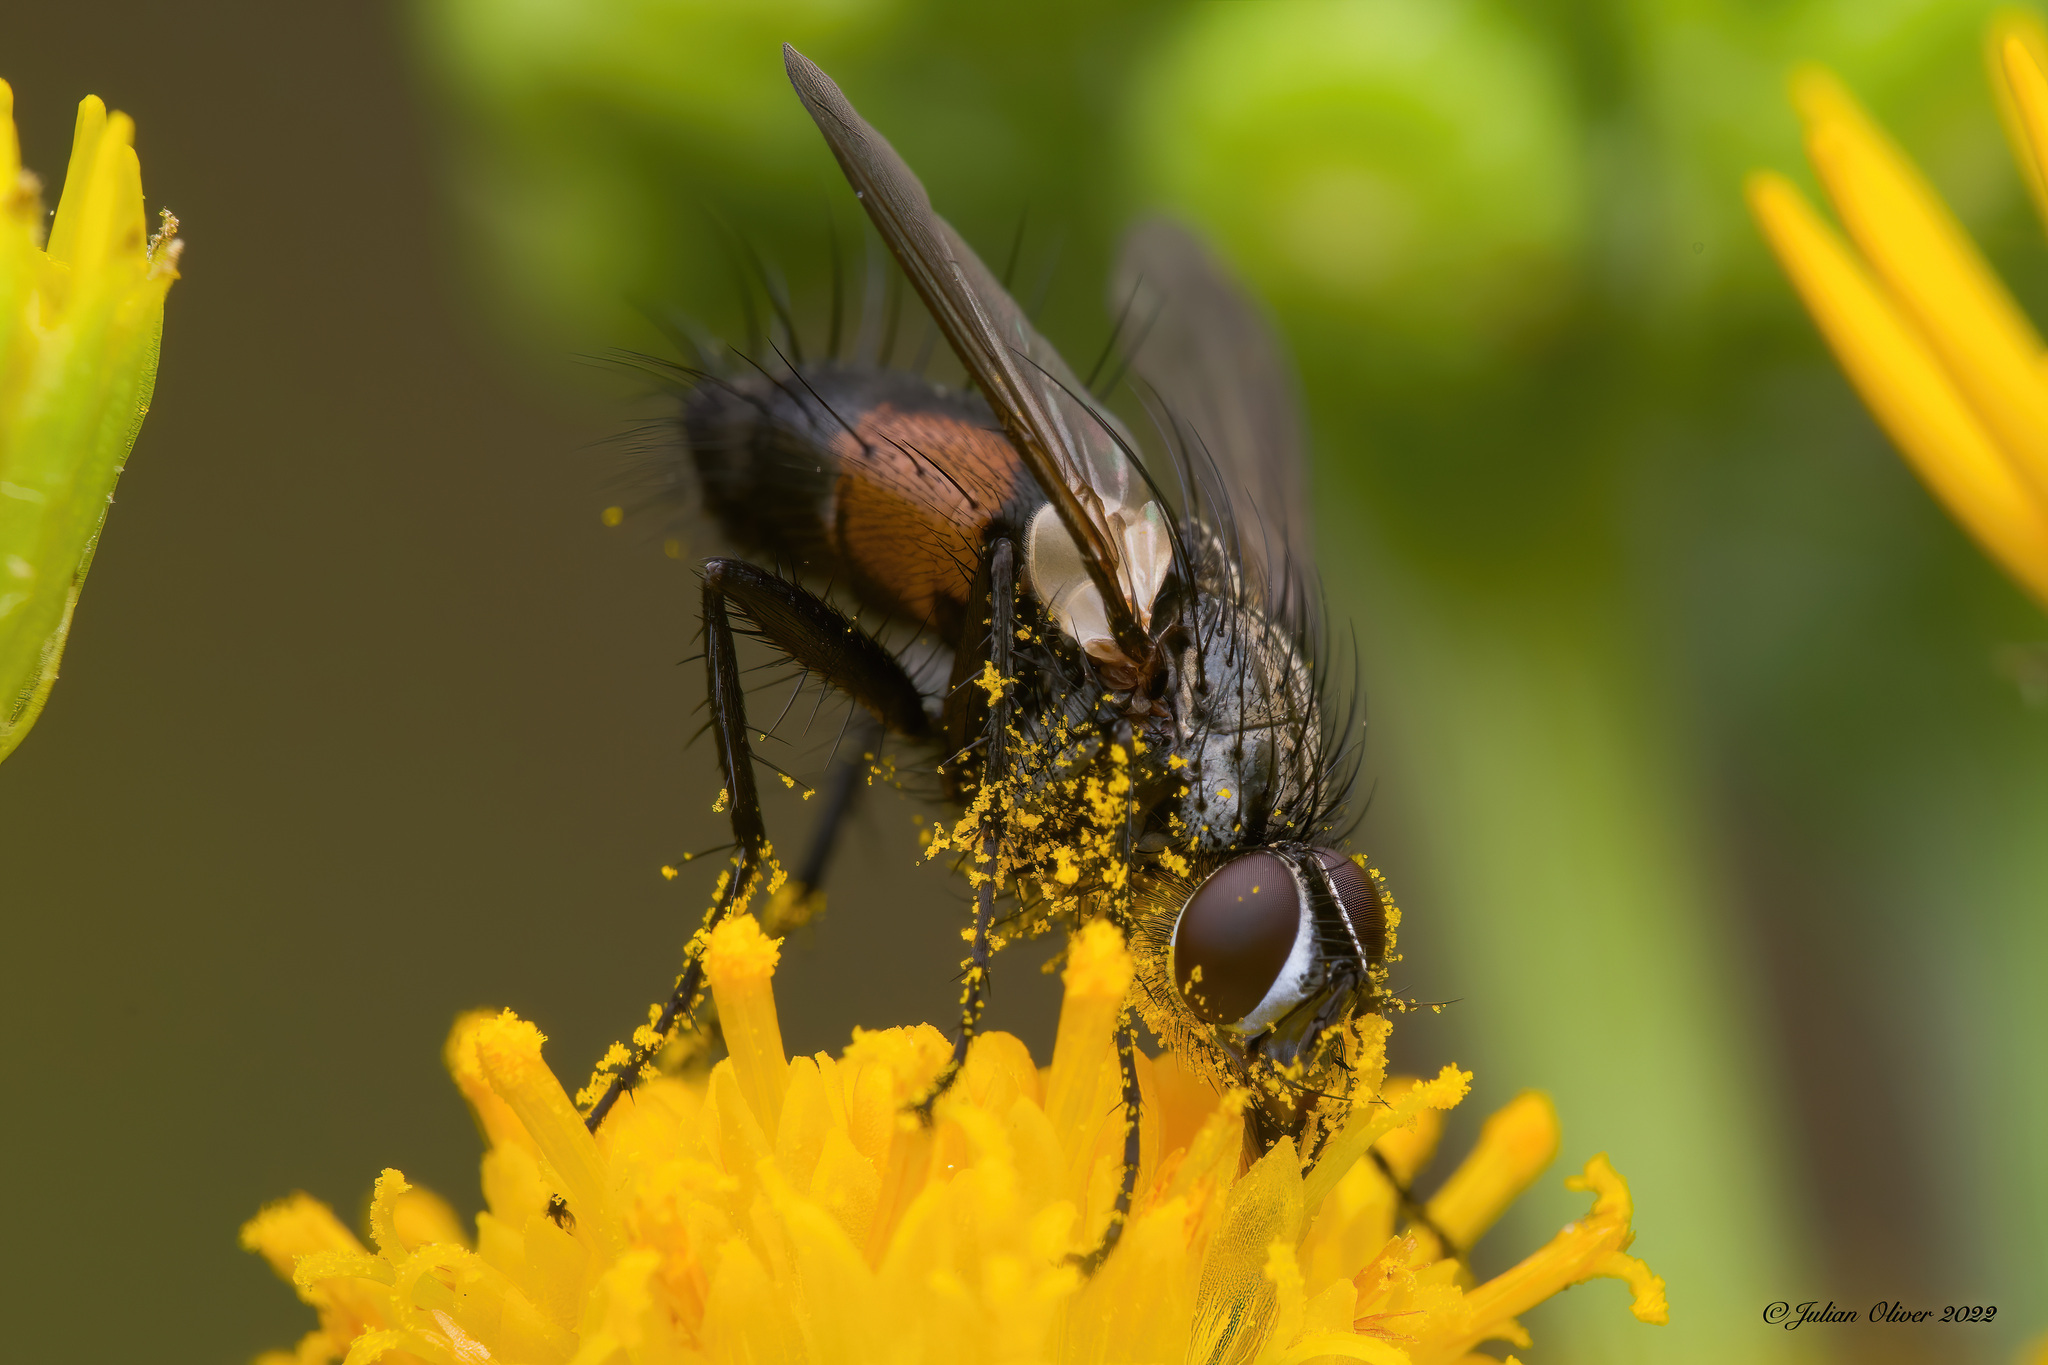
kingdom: Animalia
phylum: Arthropoda
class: Insecta
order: Diptera
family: Tachinidae
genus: Eriothrix
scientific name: Eriothrix rufomaculatus
